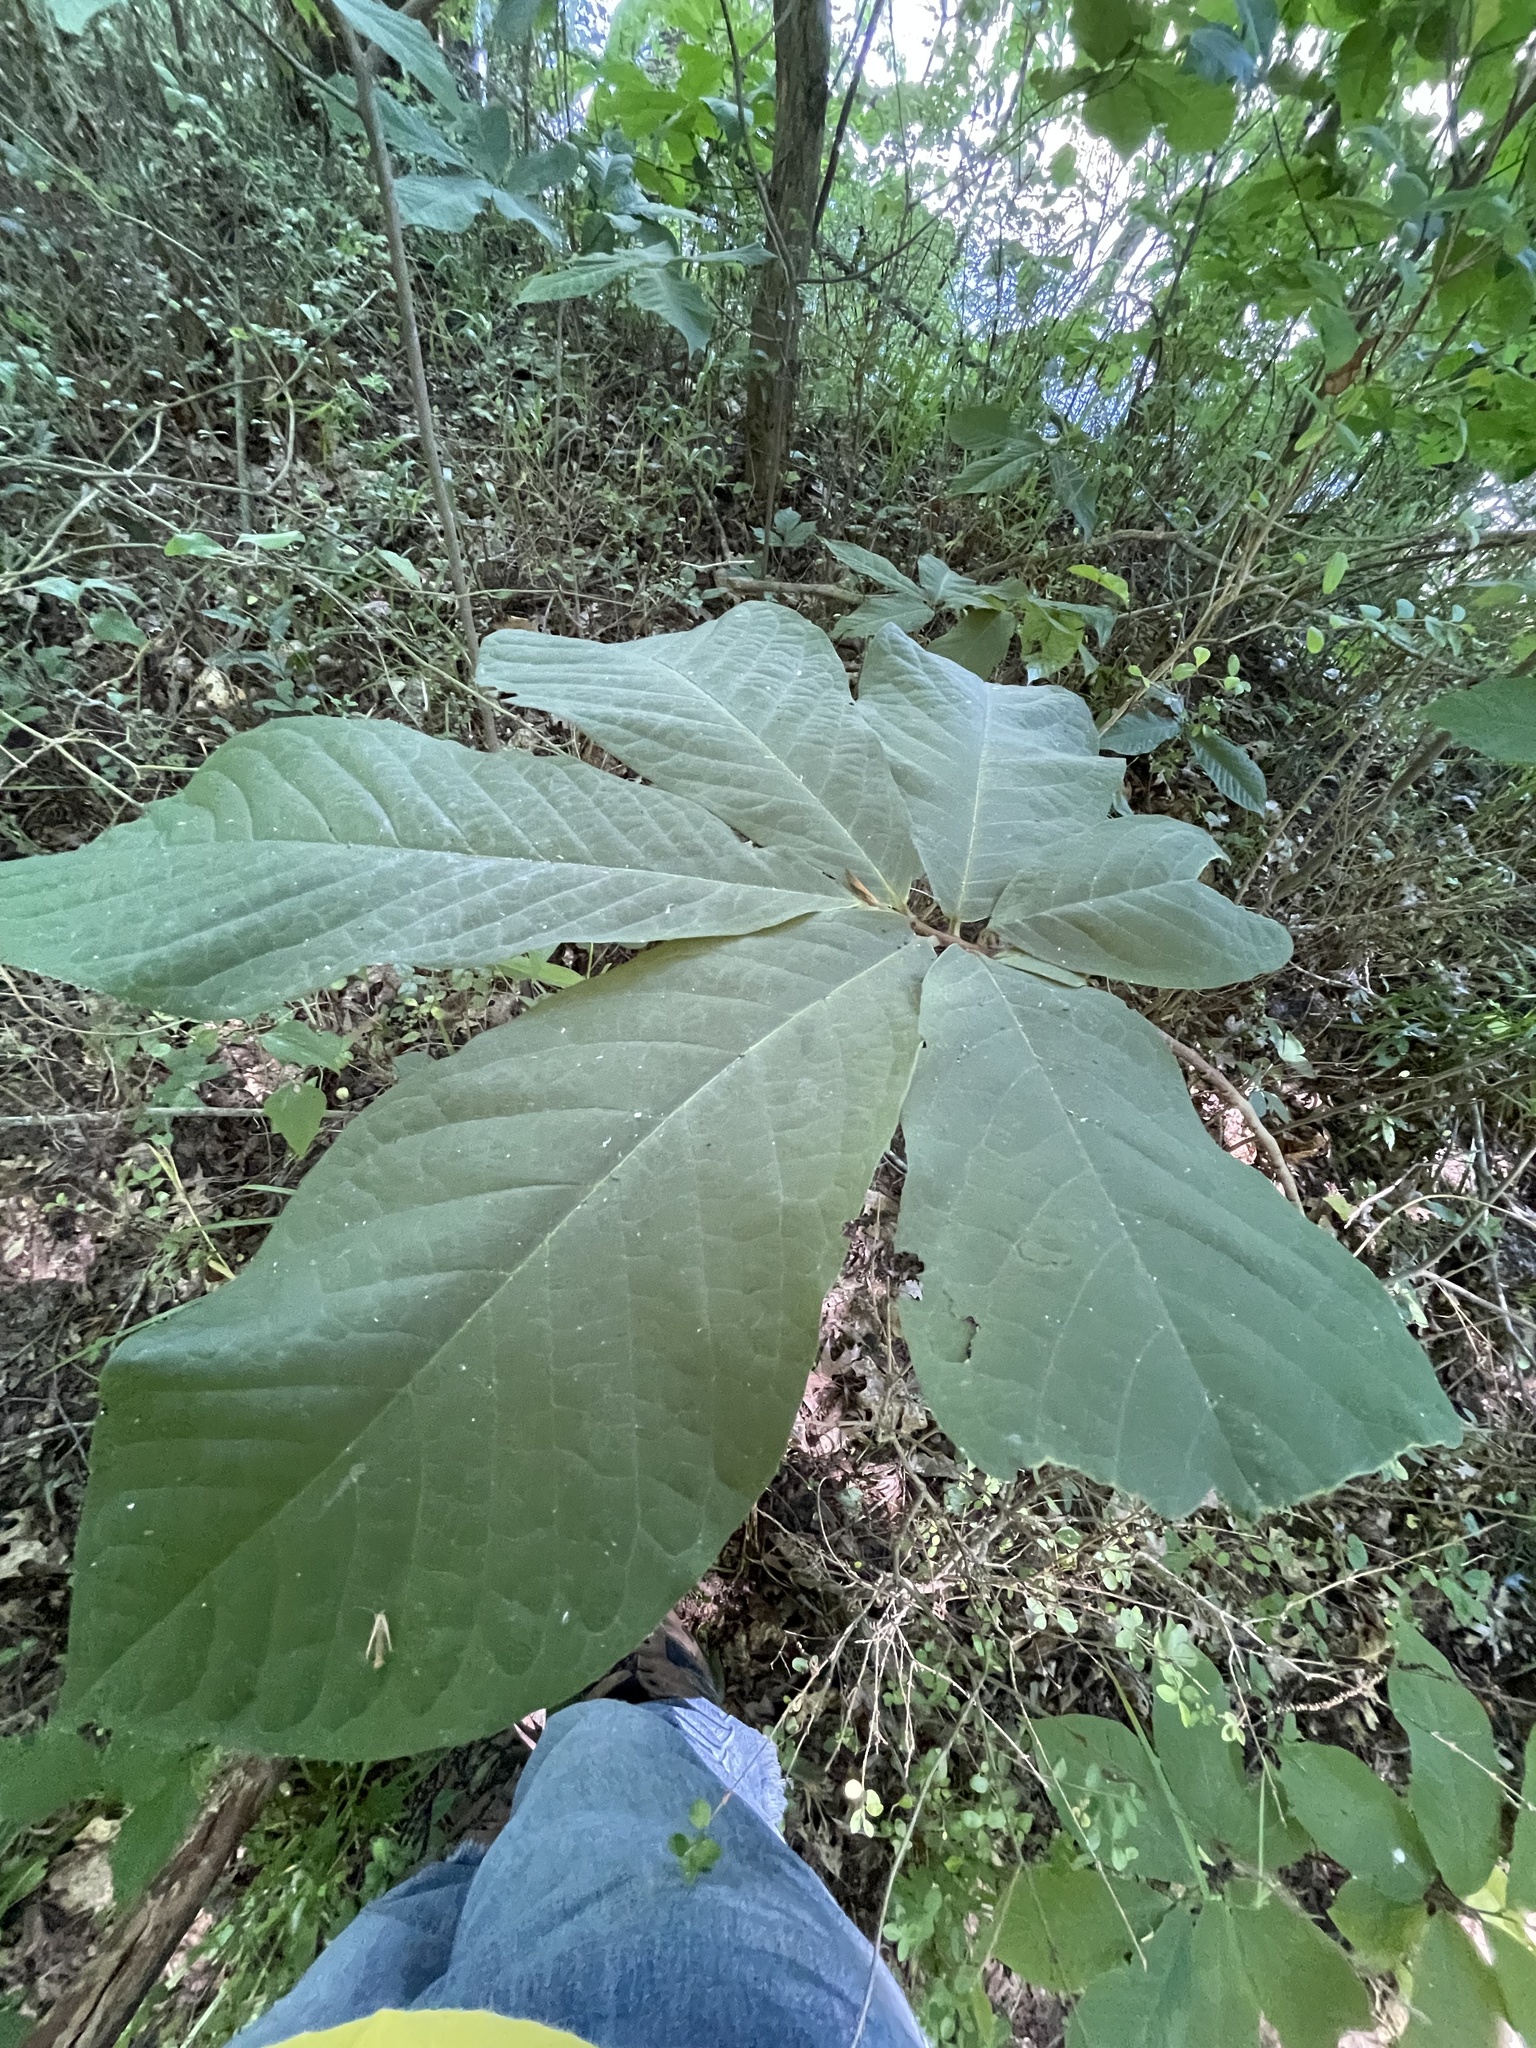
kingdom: Plantae
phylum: Tracheophyta
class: Magnoliopsida
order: Magnoliales
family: Annonaceae
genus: Asimina
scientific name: Asimina triloba
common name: Dog-banana
